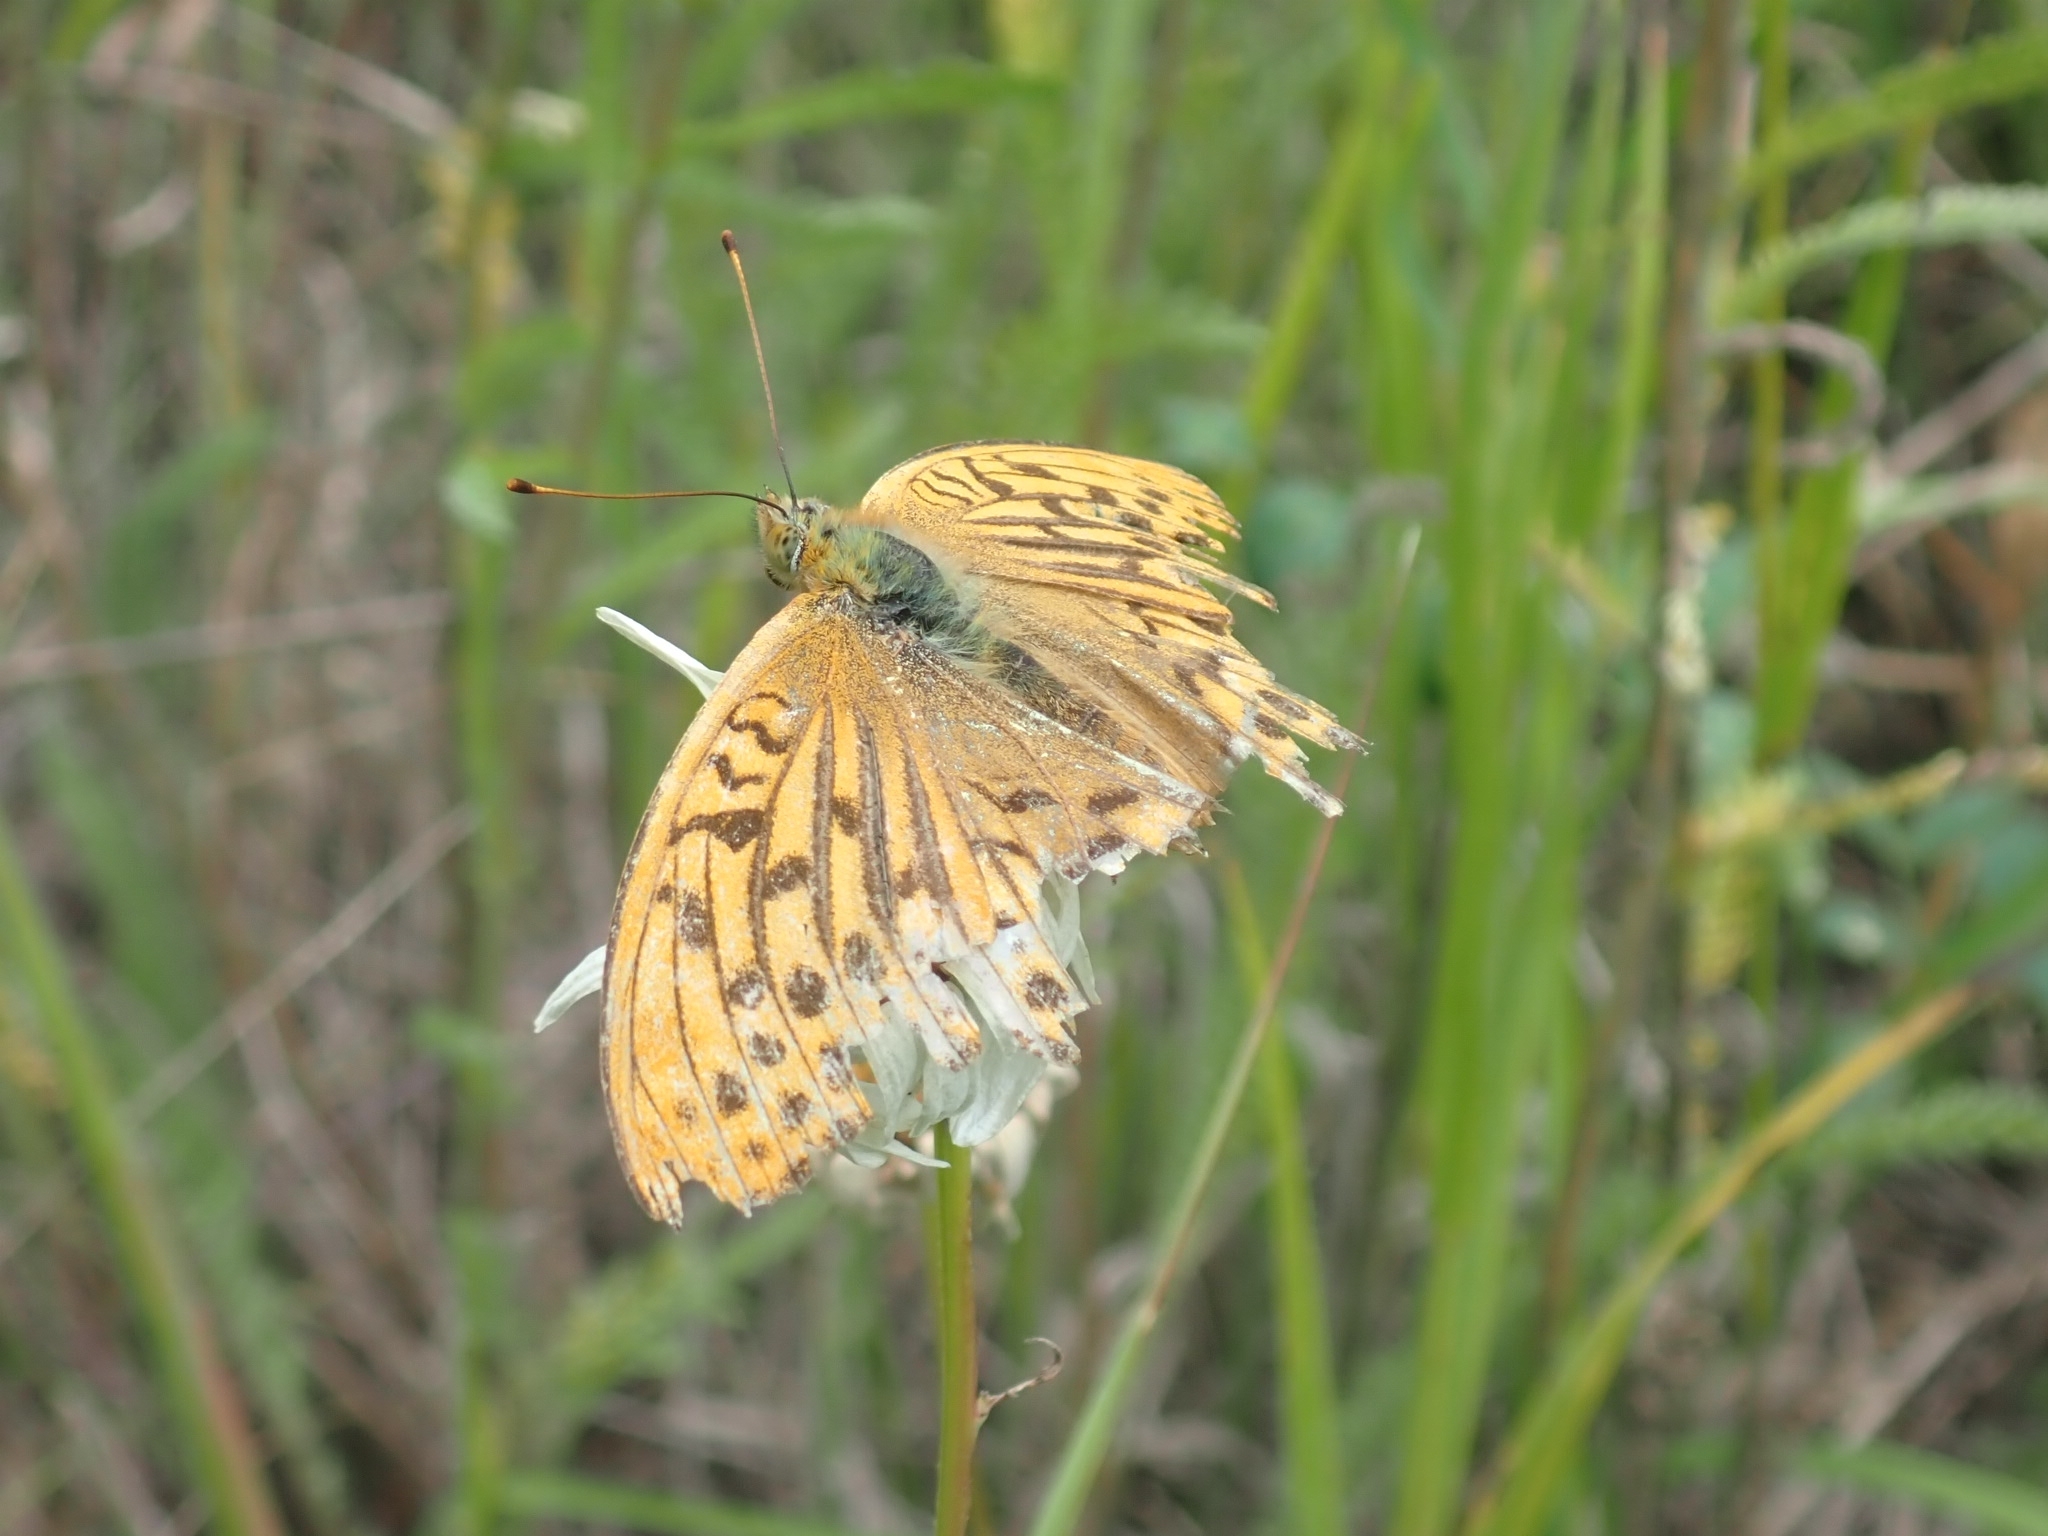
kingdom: Animalia
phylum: Arthropoda
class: Insecta
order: Lepidoptera
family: Nymphalidae
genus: Argynnis
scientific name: Argynnis paphia
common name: Silver-washed fritillary
